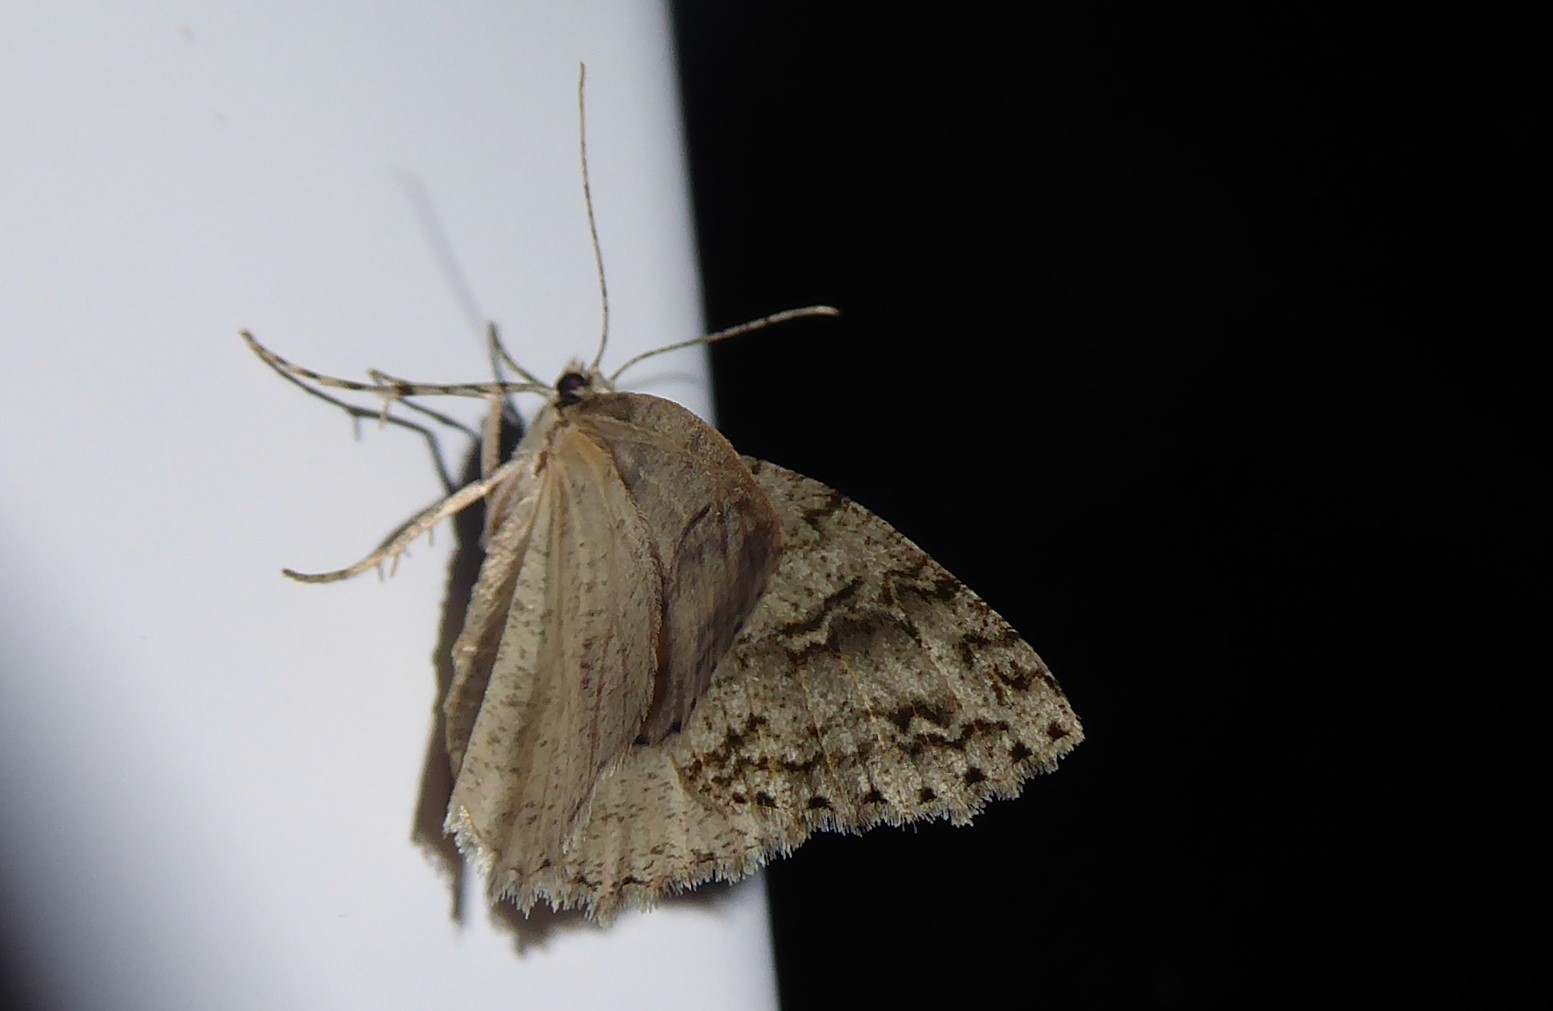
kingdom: Animalia
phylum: Arthropoda
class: Insecta
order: Lepidoptera
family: Geometridae
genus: Pseudocoremia
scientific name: Pseudocoremia rudisata
